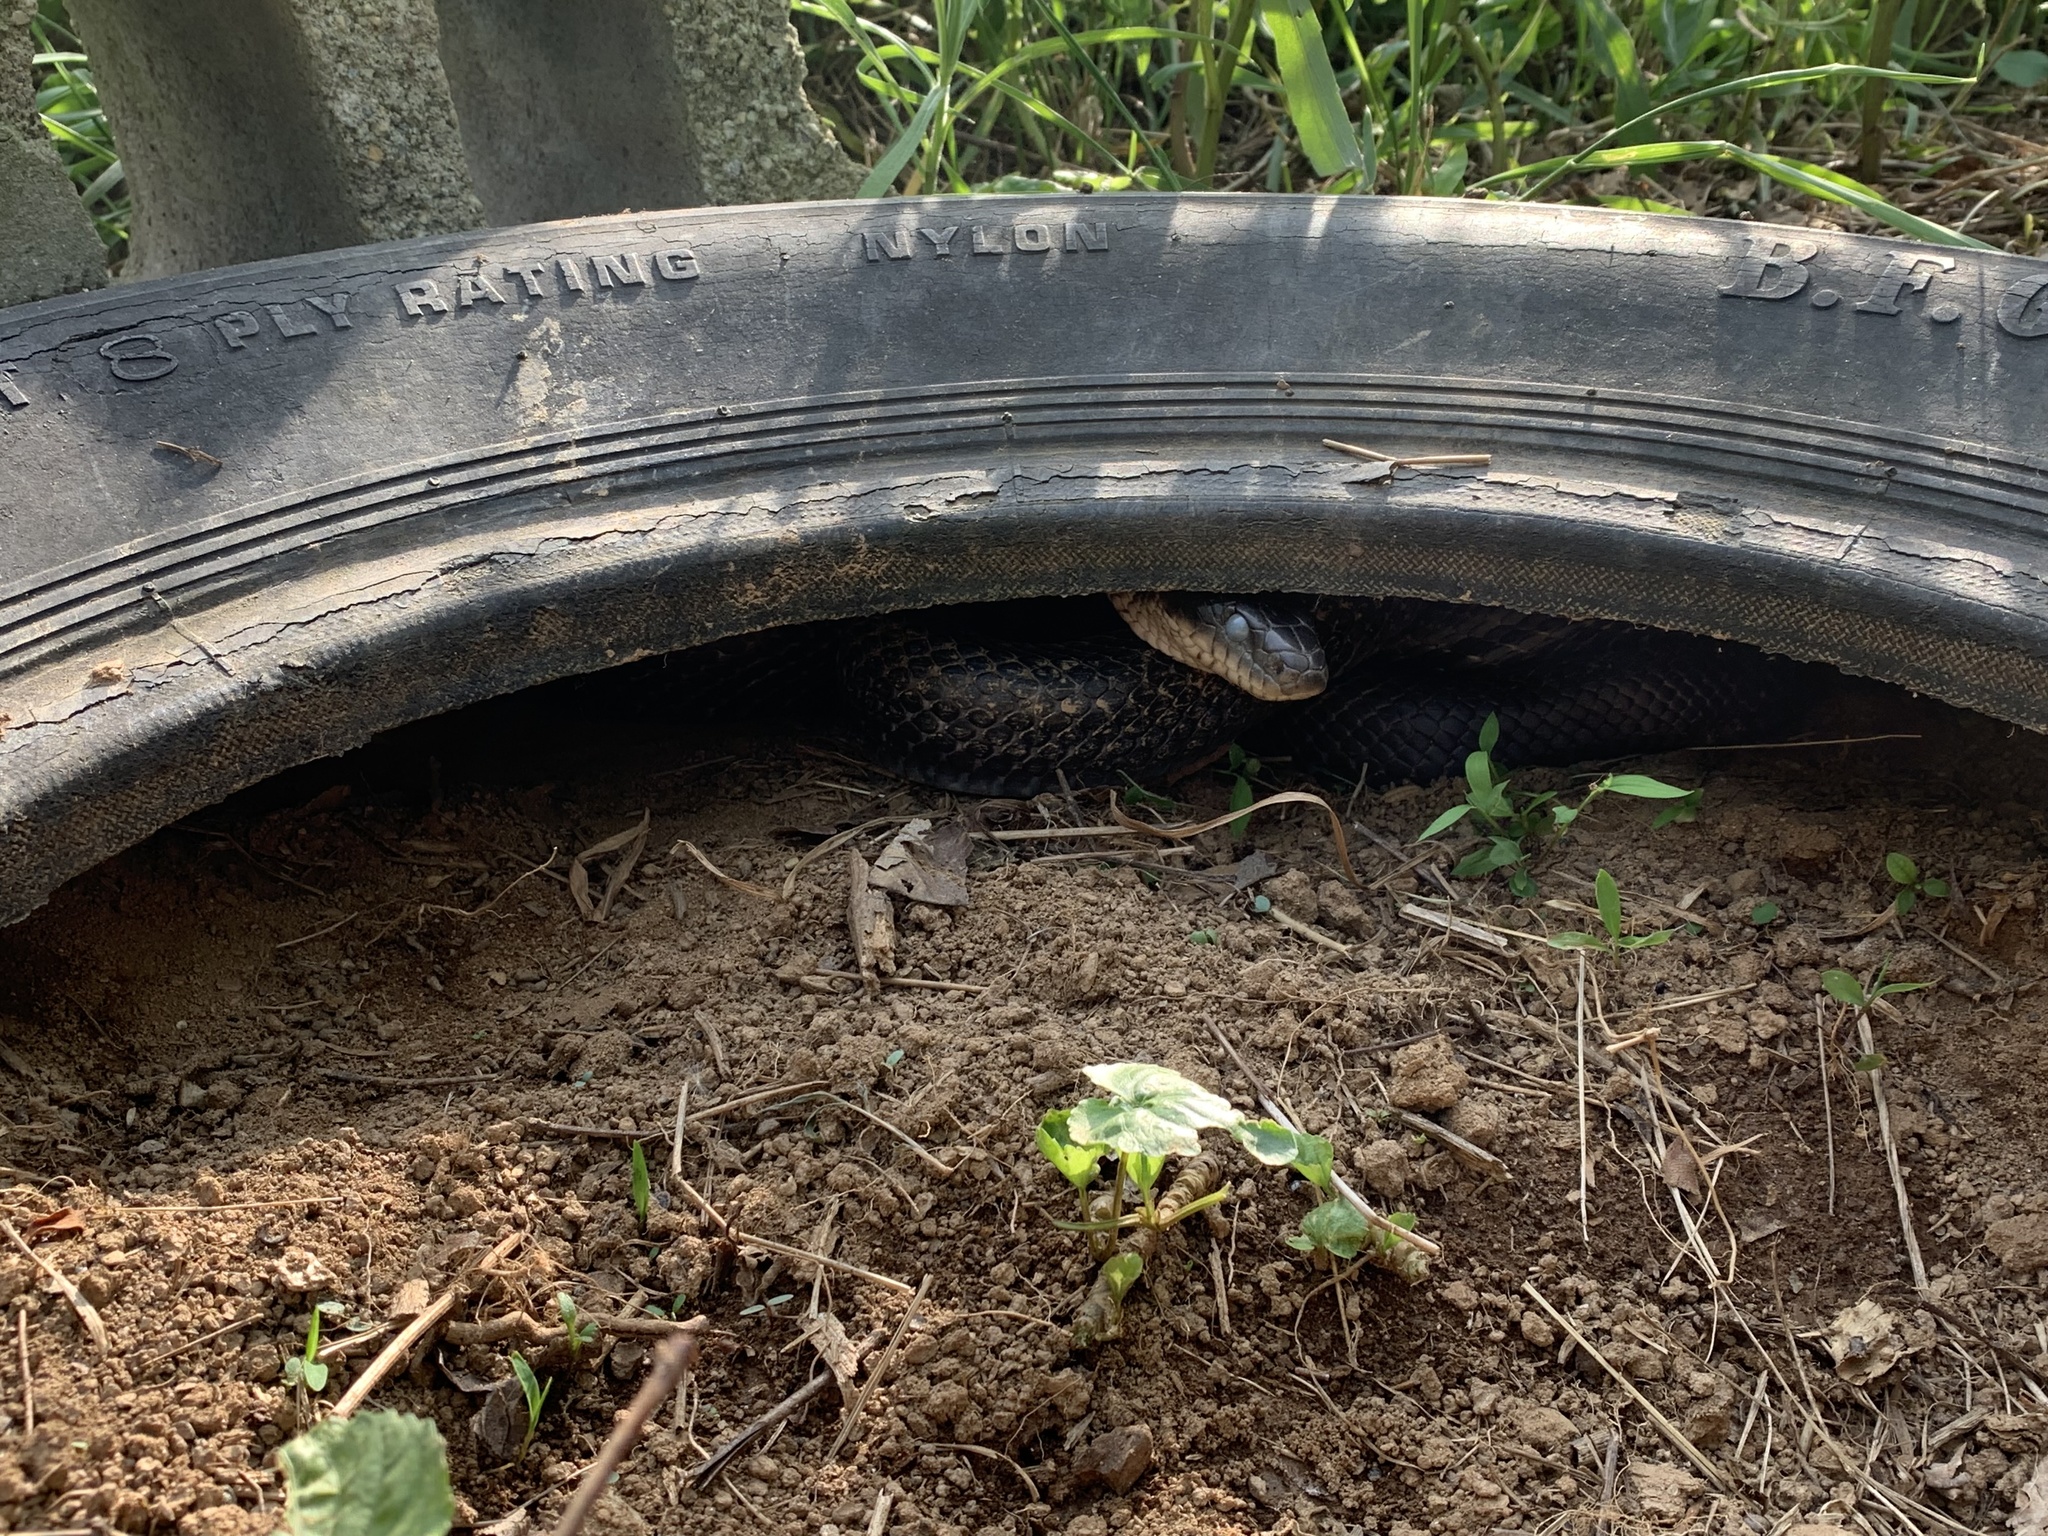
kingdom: Animalia
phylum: Chordata
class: Squamata
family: Colubridae
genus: Pantherophis
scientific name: Pantherophis alleghaniensis
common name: Eastern rat snake
